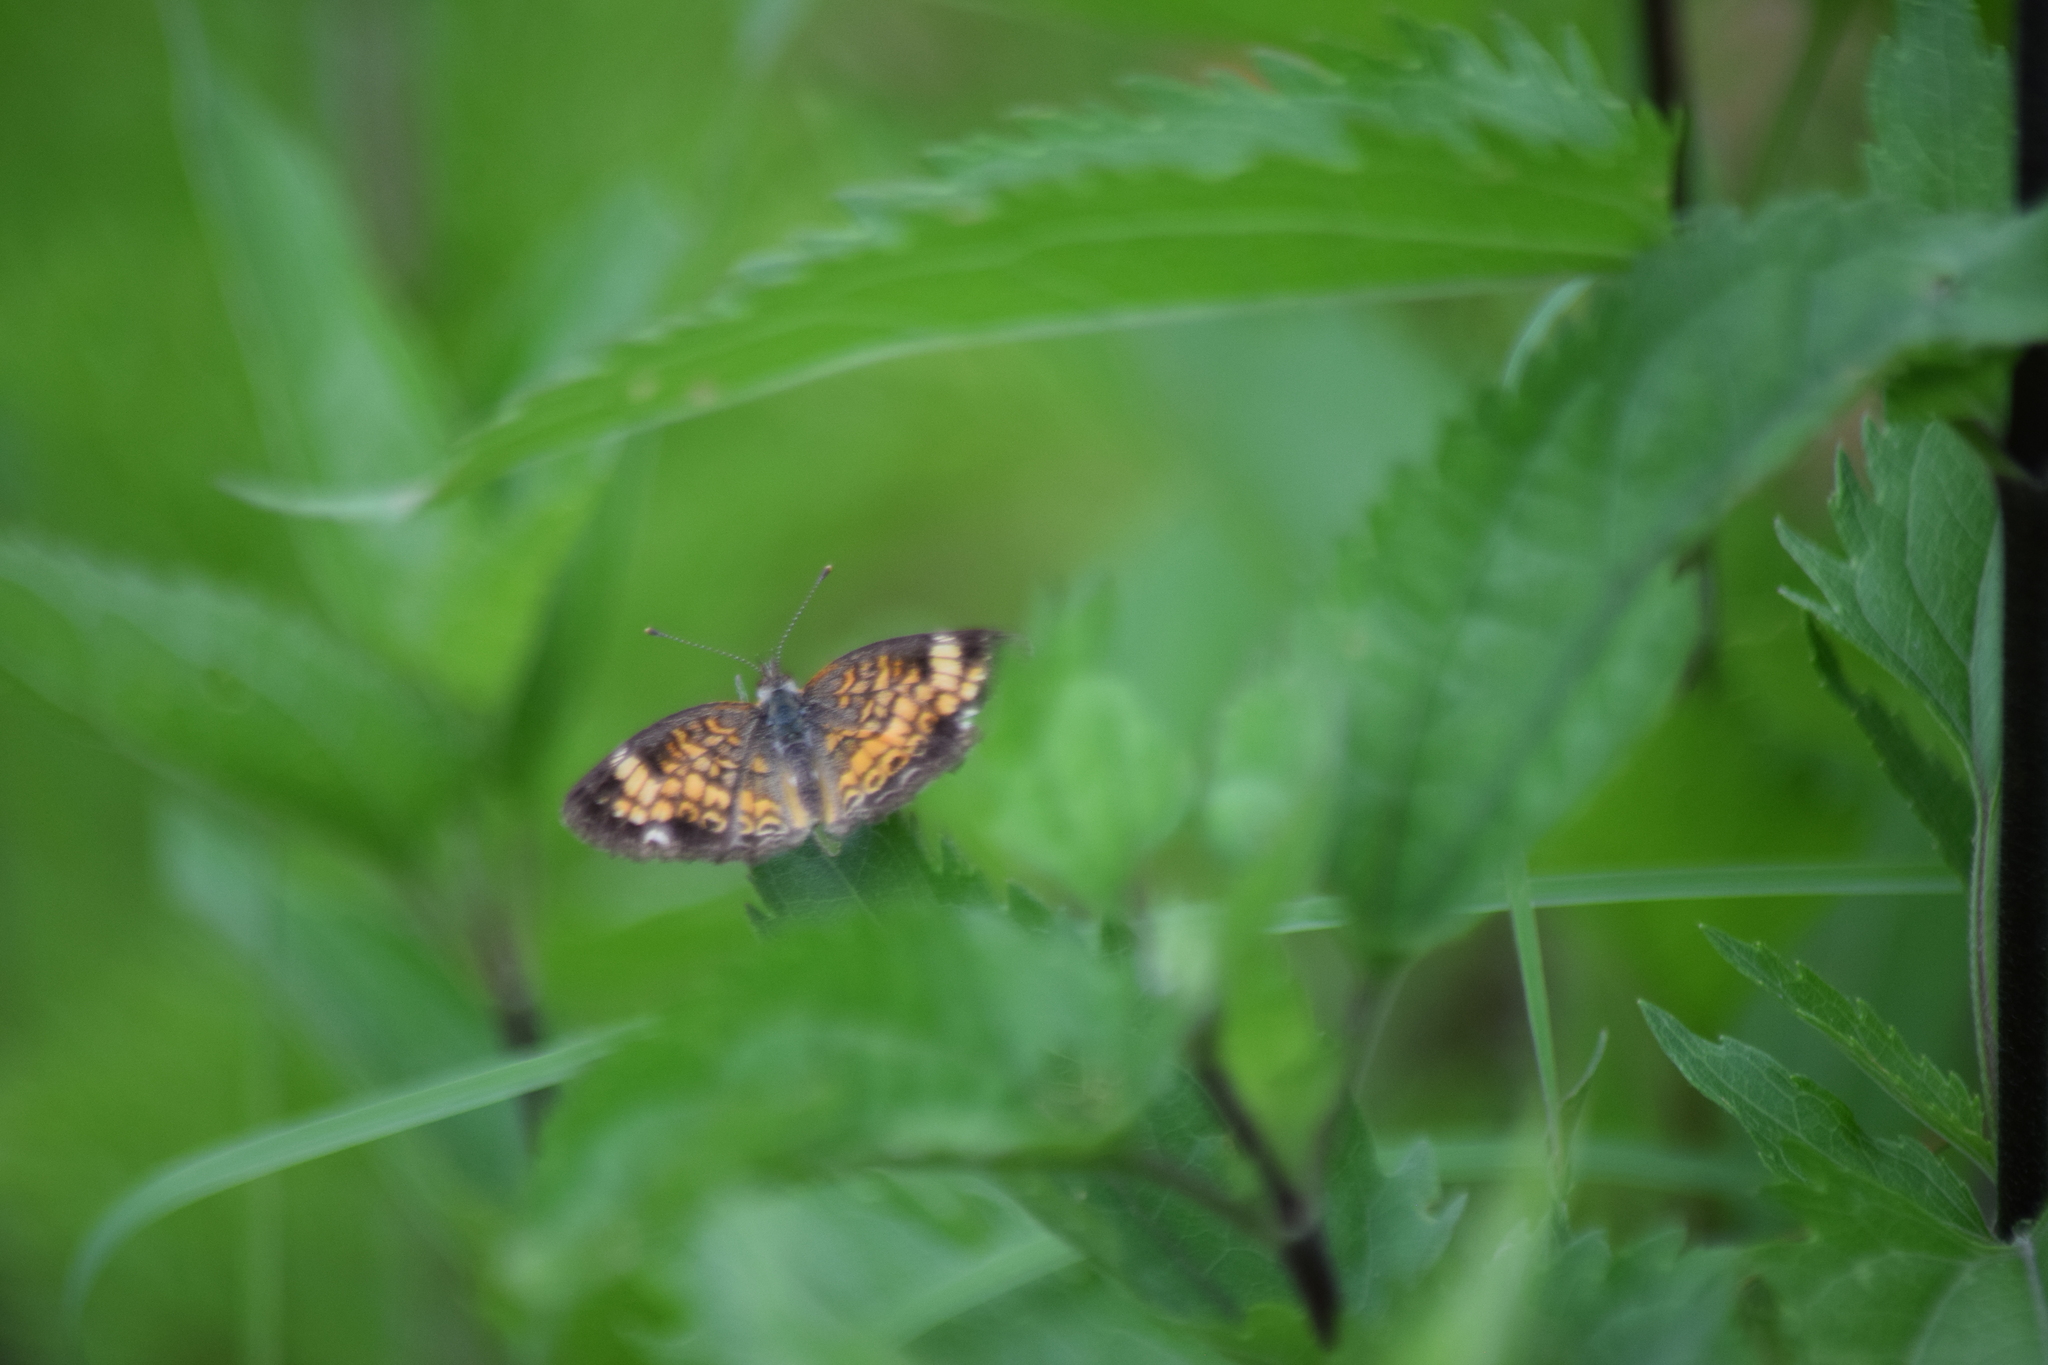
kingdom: Animalia
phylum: Arthropoda
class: Insecta
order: Lepidoptera
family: Nymphalidae
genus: Phyciodes
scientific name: Phyciodes tharos
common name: Pearl crescent
